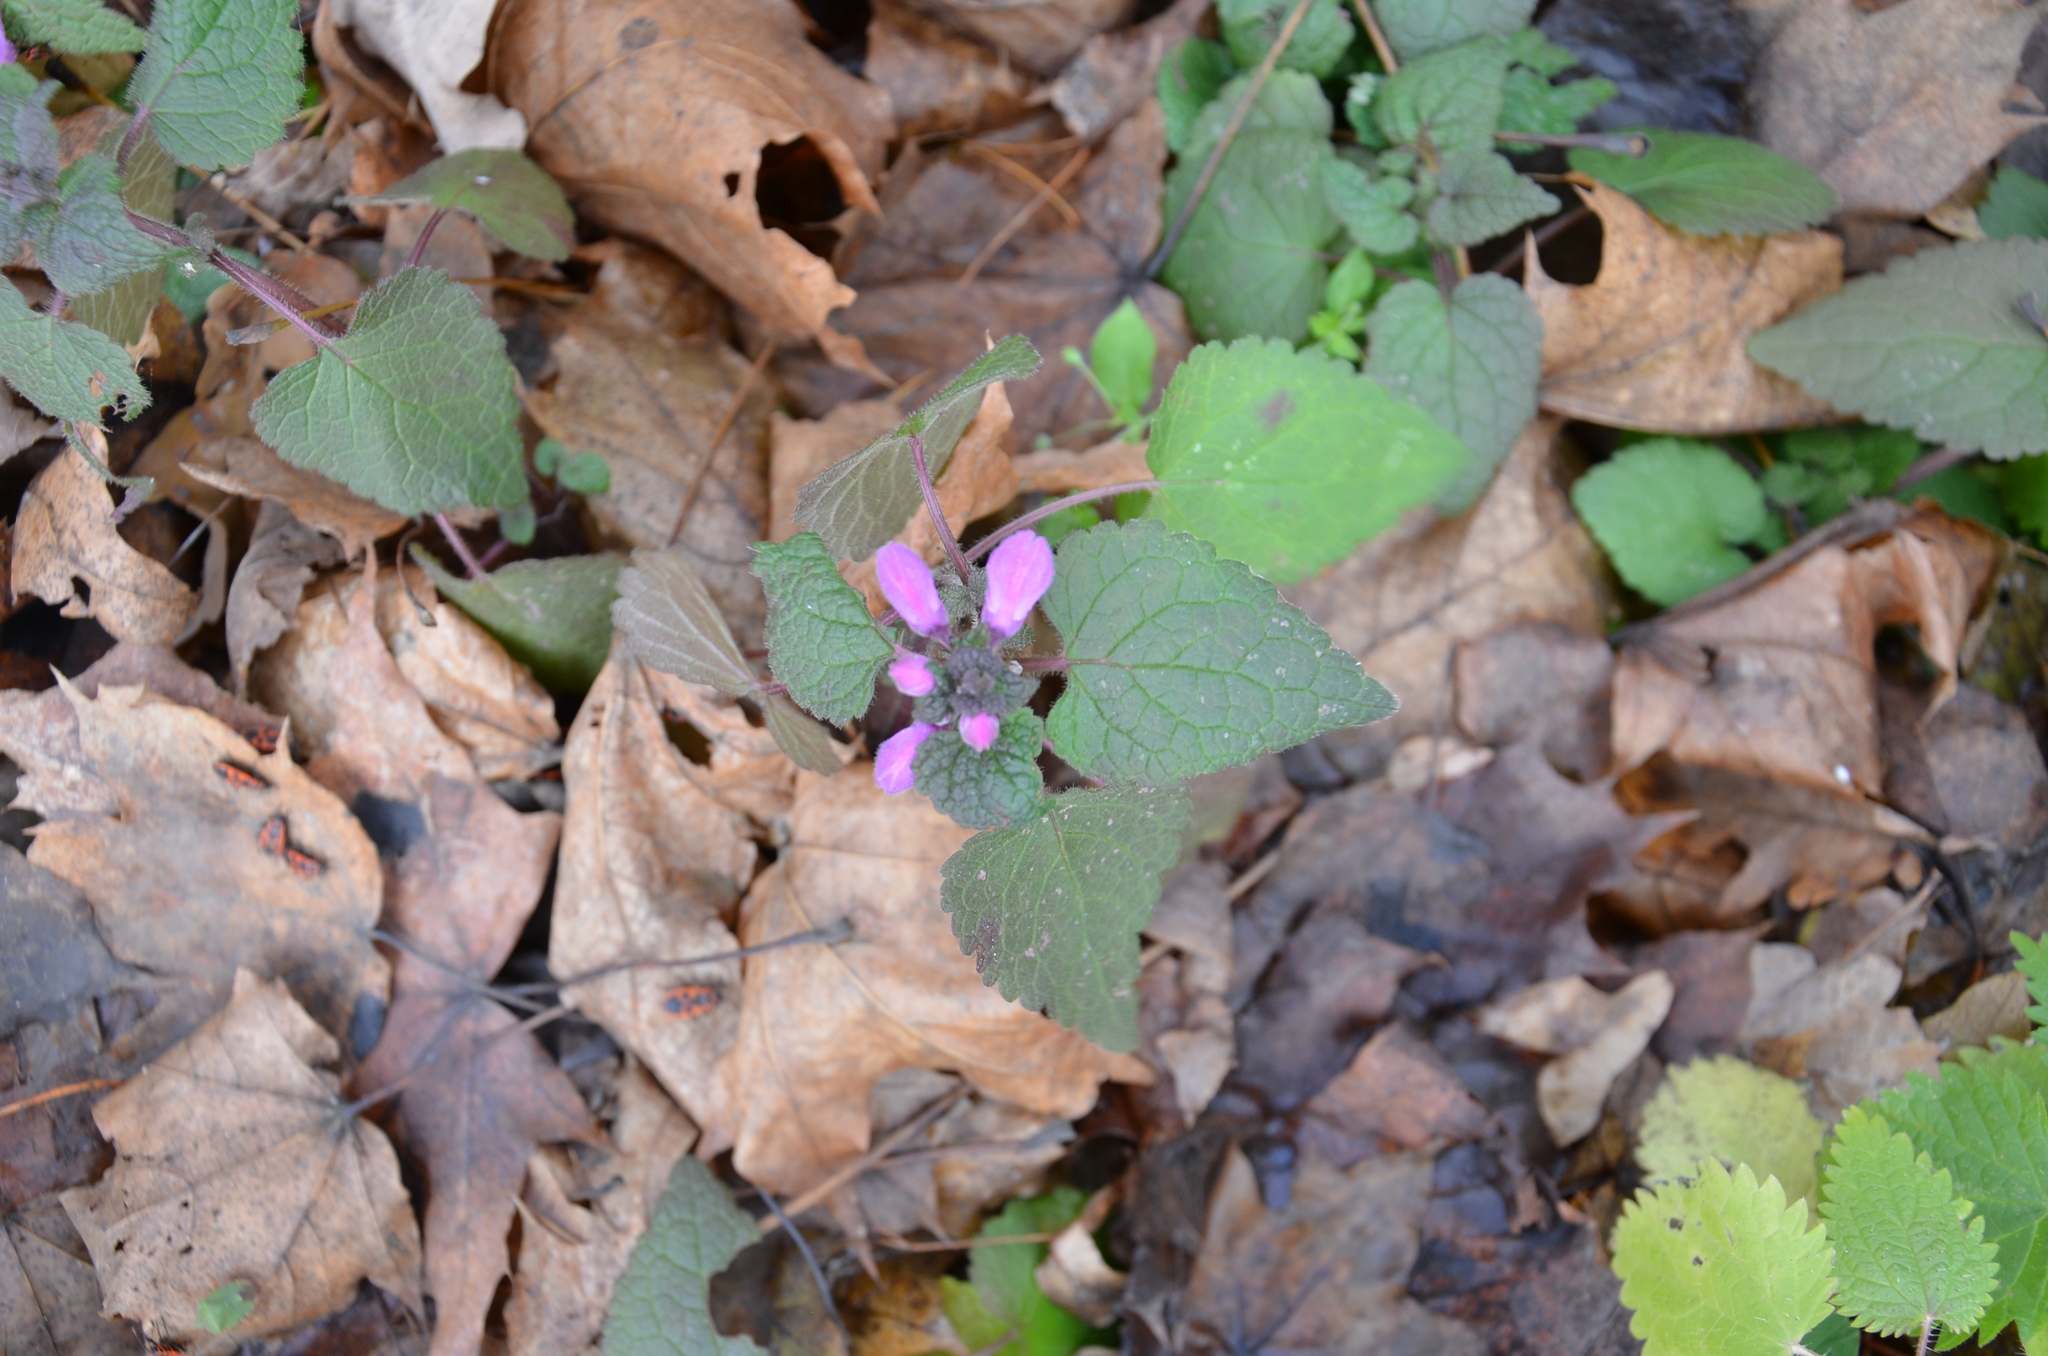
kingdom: Plantae
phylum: Tracheophyta
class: Magnoliopsida
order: Lamiales
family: Lamiaceae
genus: Lamium
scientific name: Lamium maculatum
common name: Spotted dead-nettle
